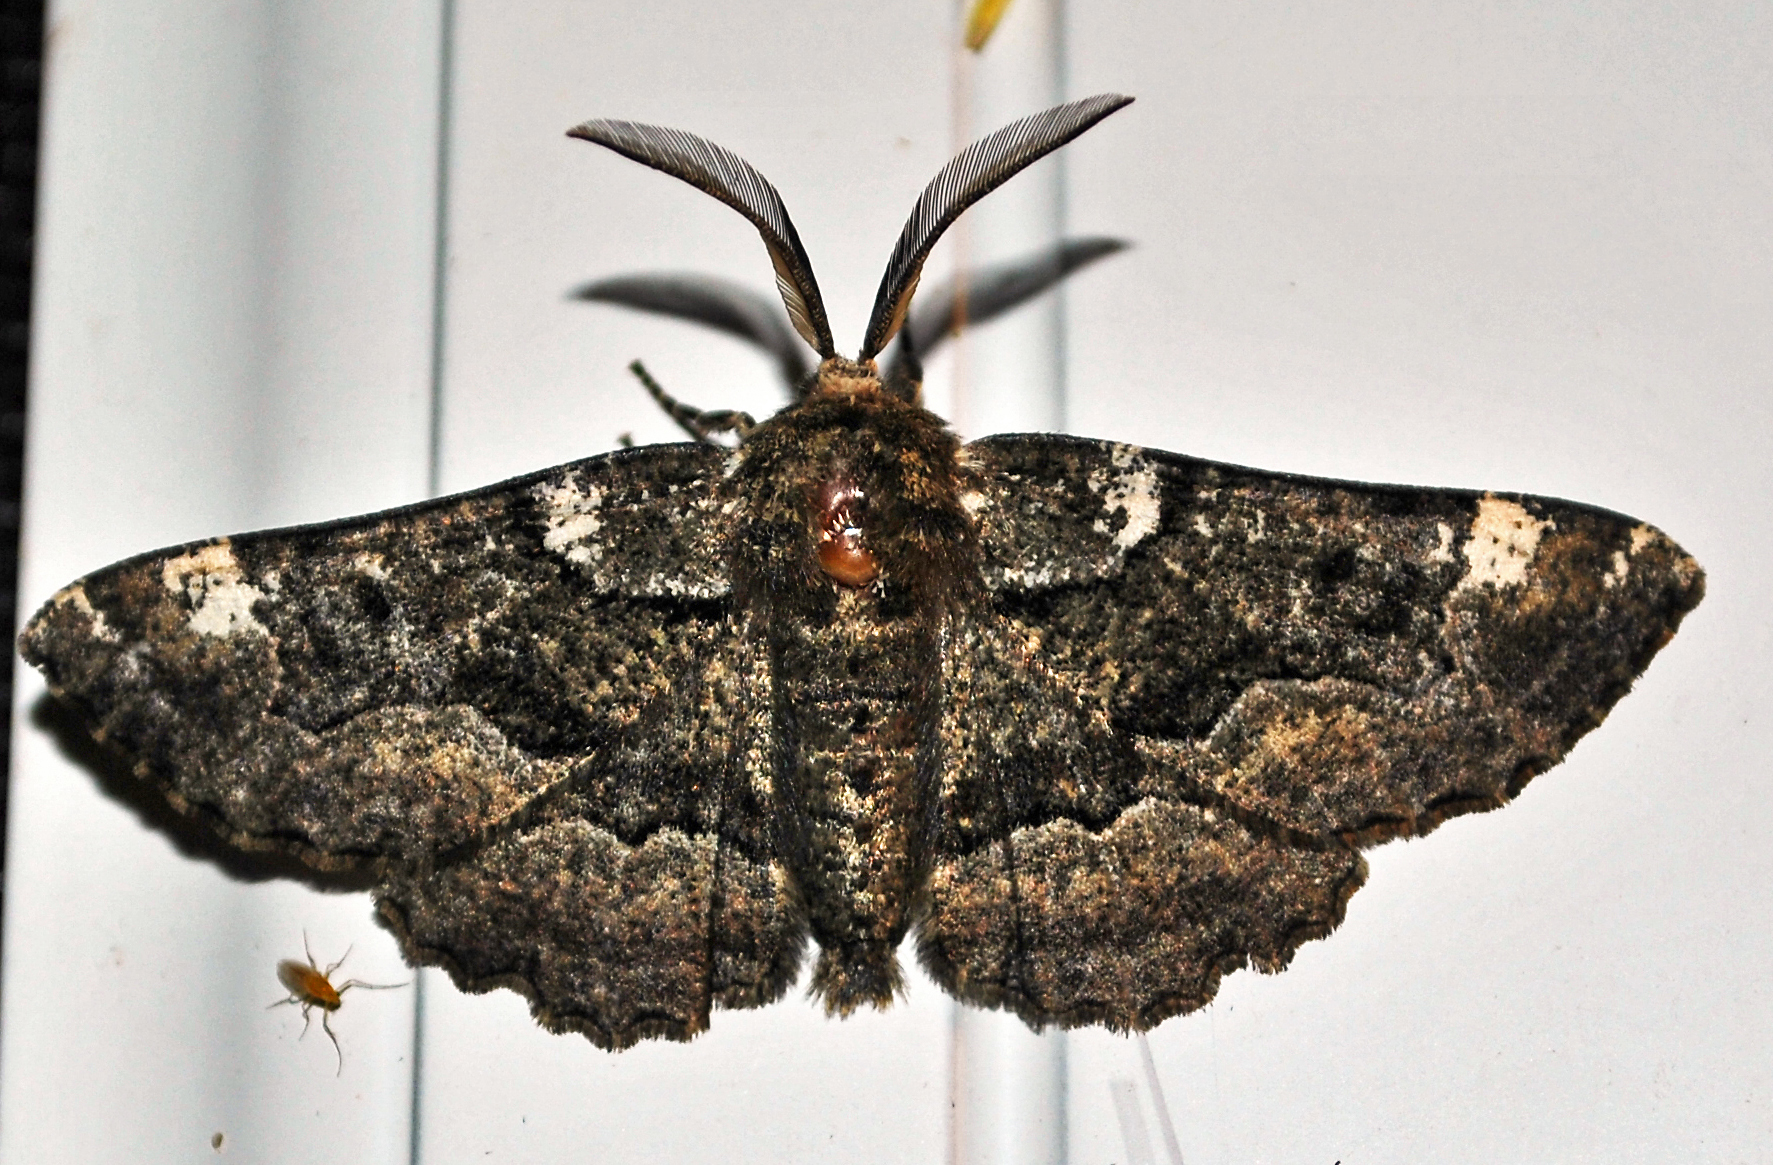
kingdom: Animalia
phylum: Arthropoda
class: Insecta
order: Lepidoptera
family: Geometridae
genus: Phaeoura
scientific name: Phaeoura quernaria
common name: Oak beauty
